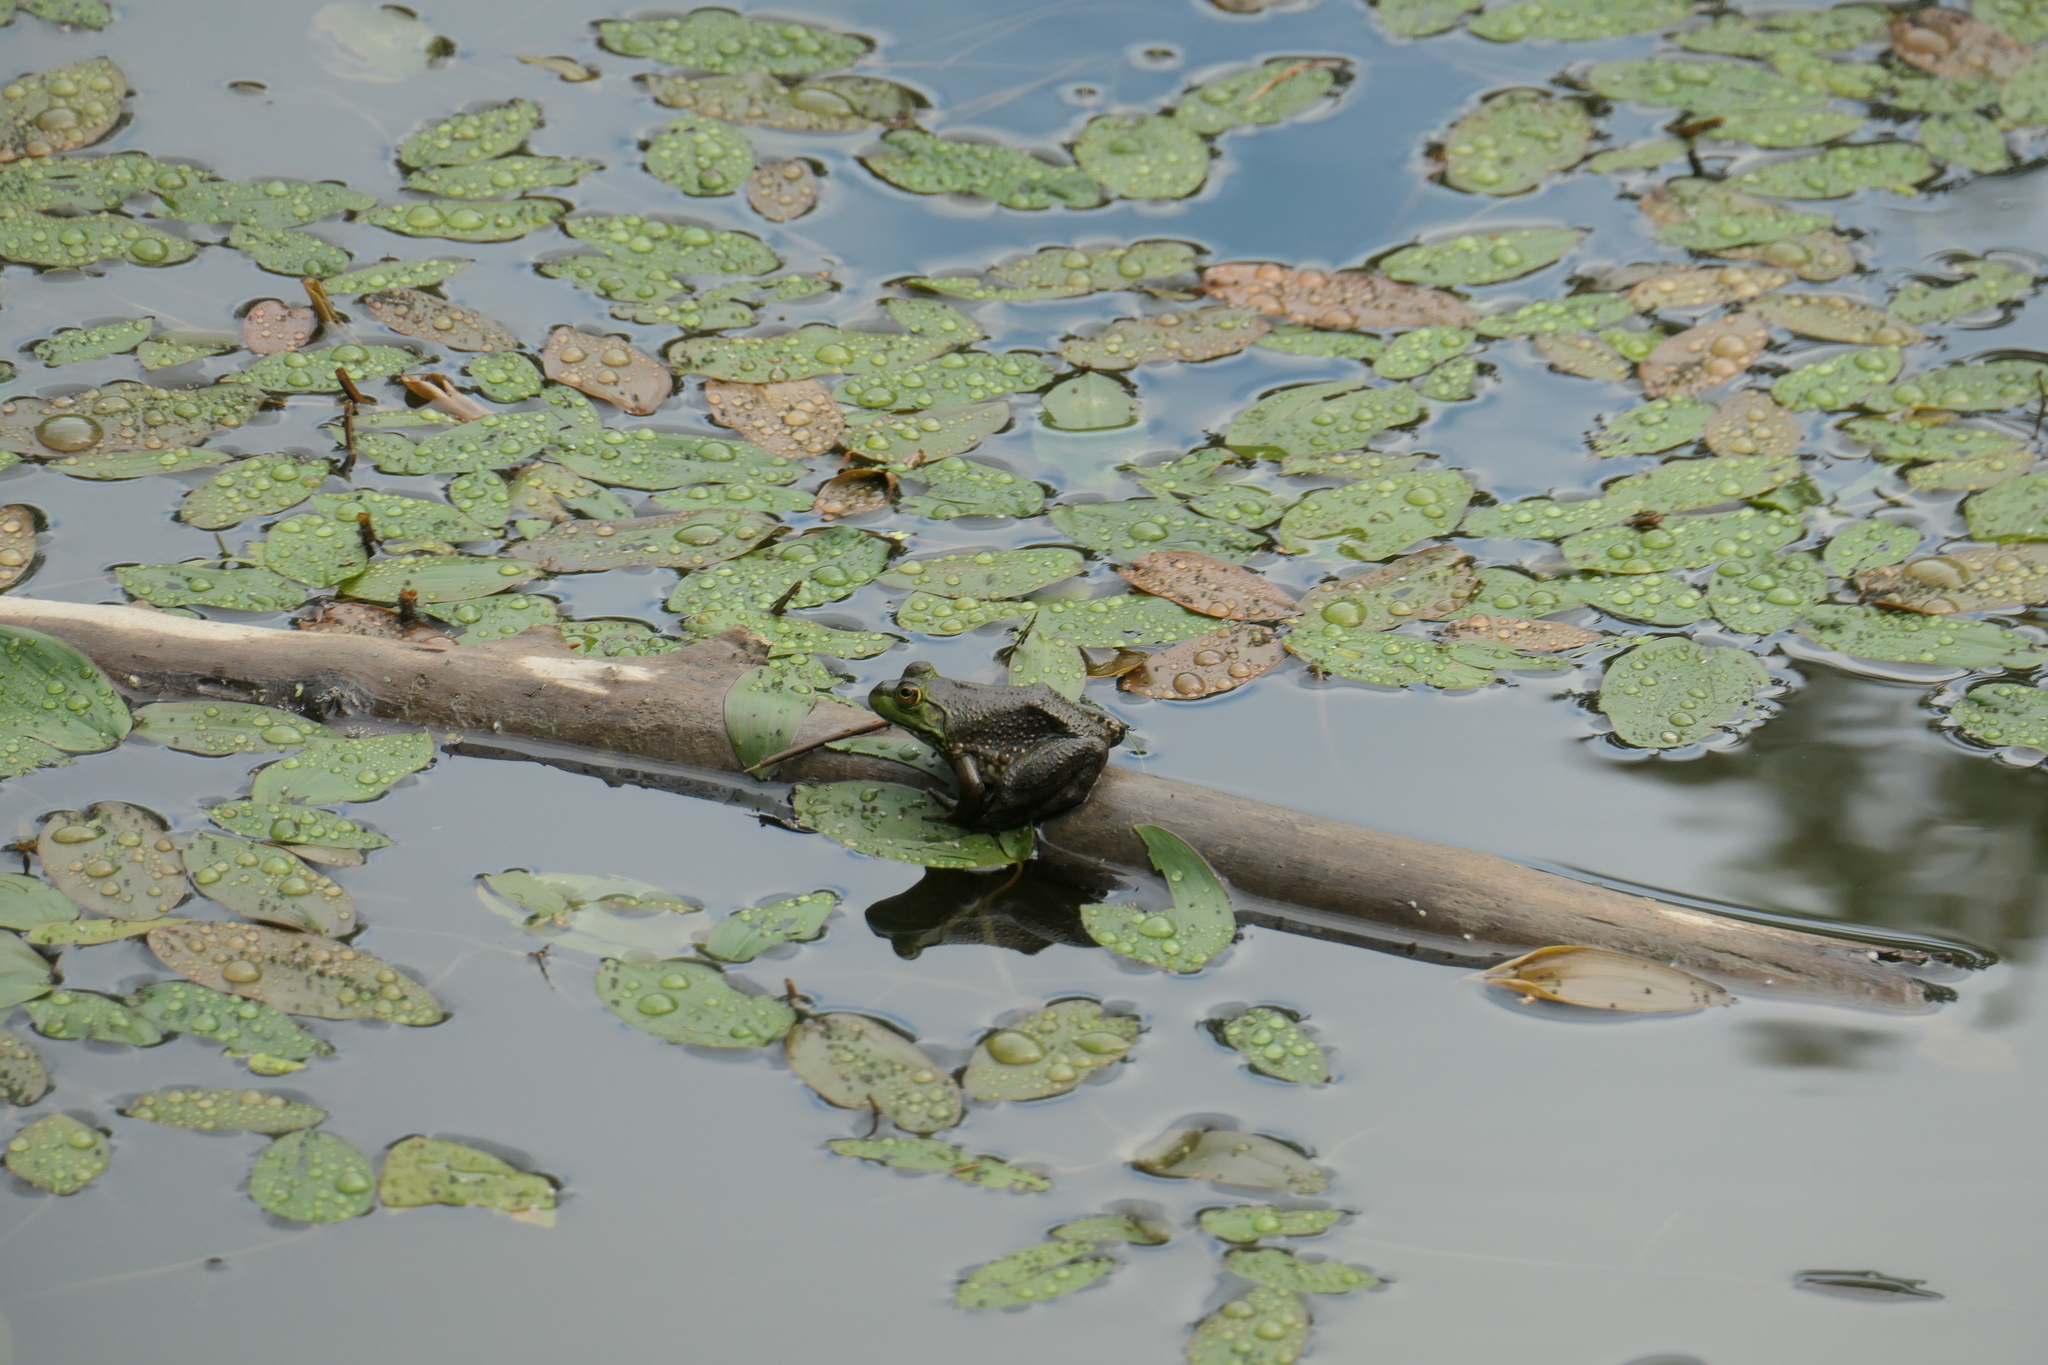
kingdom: Animalia
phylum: Chordata
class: Amphibia
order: Anura
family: Ranidae
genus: Lithobates
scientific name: Lithobates catesbeianus
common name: American bullfrog
